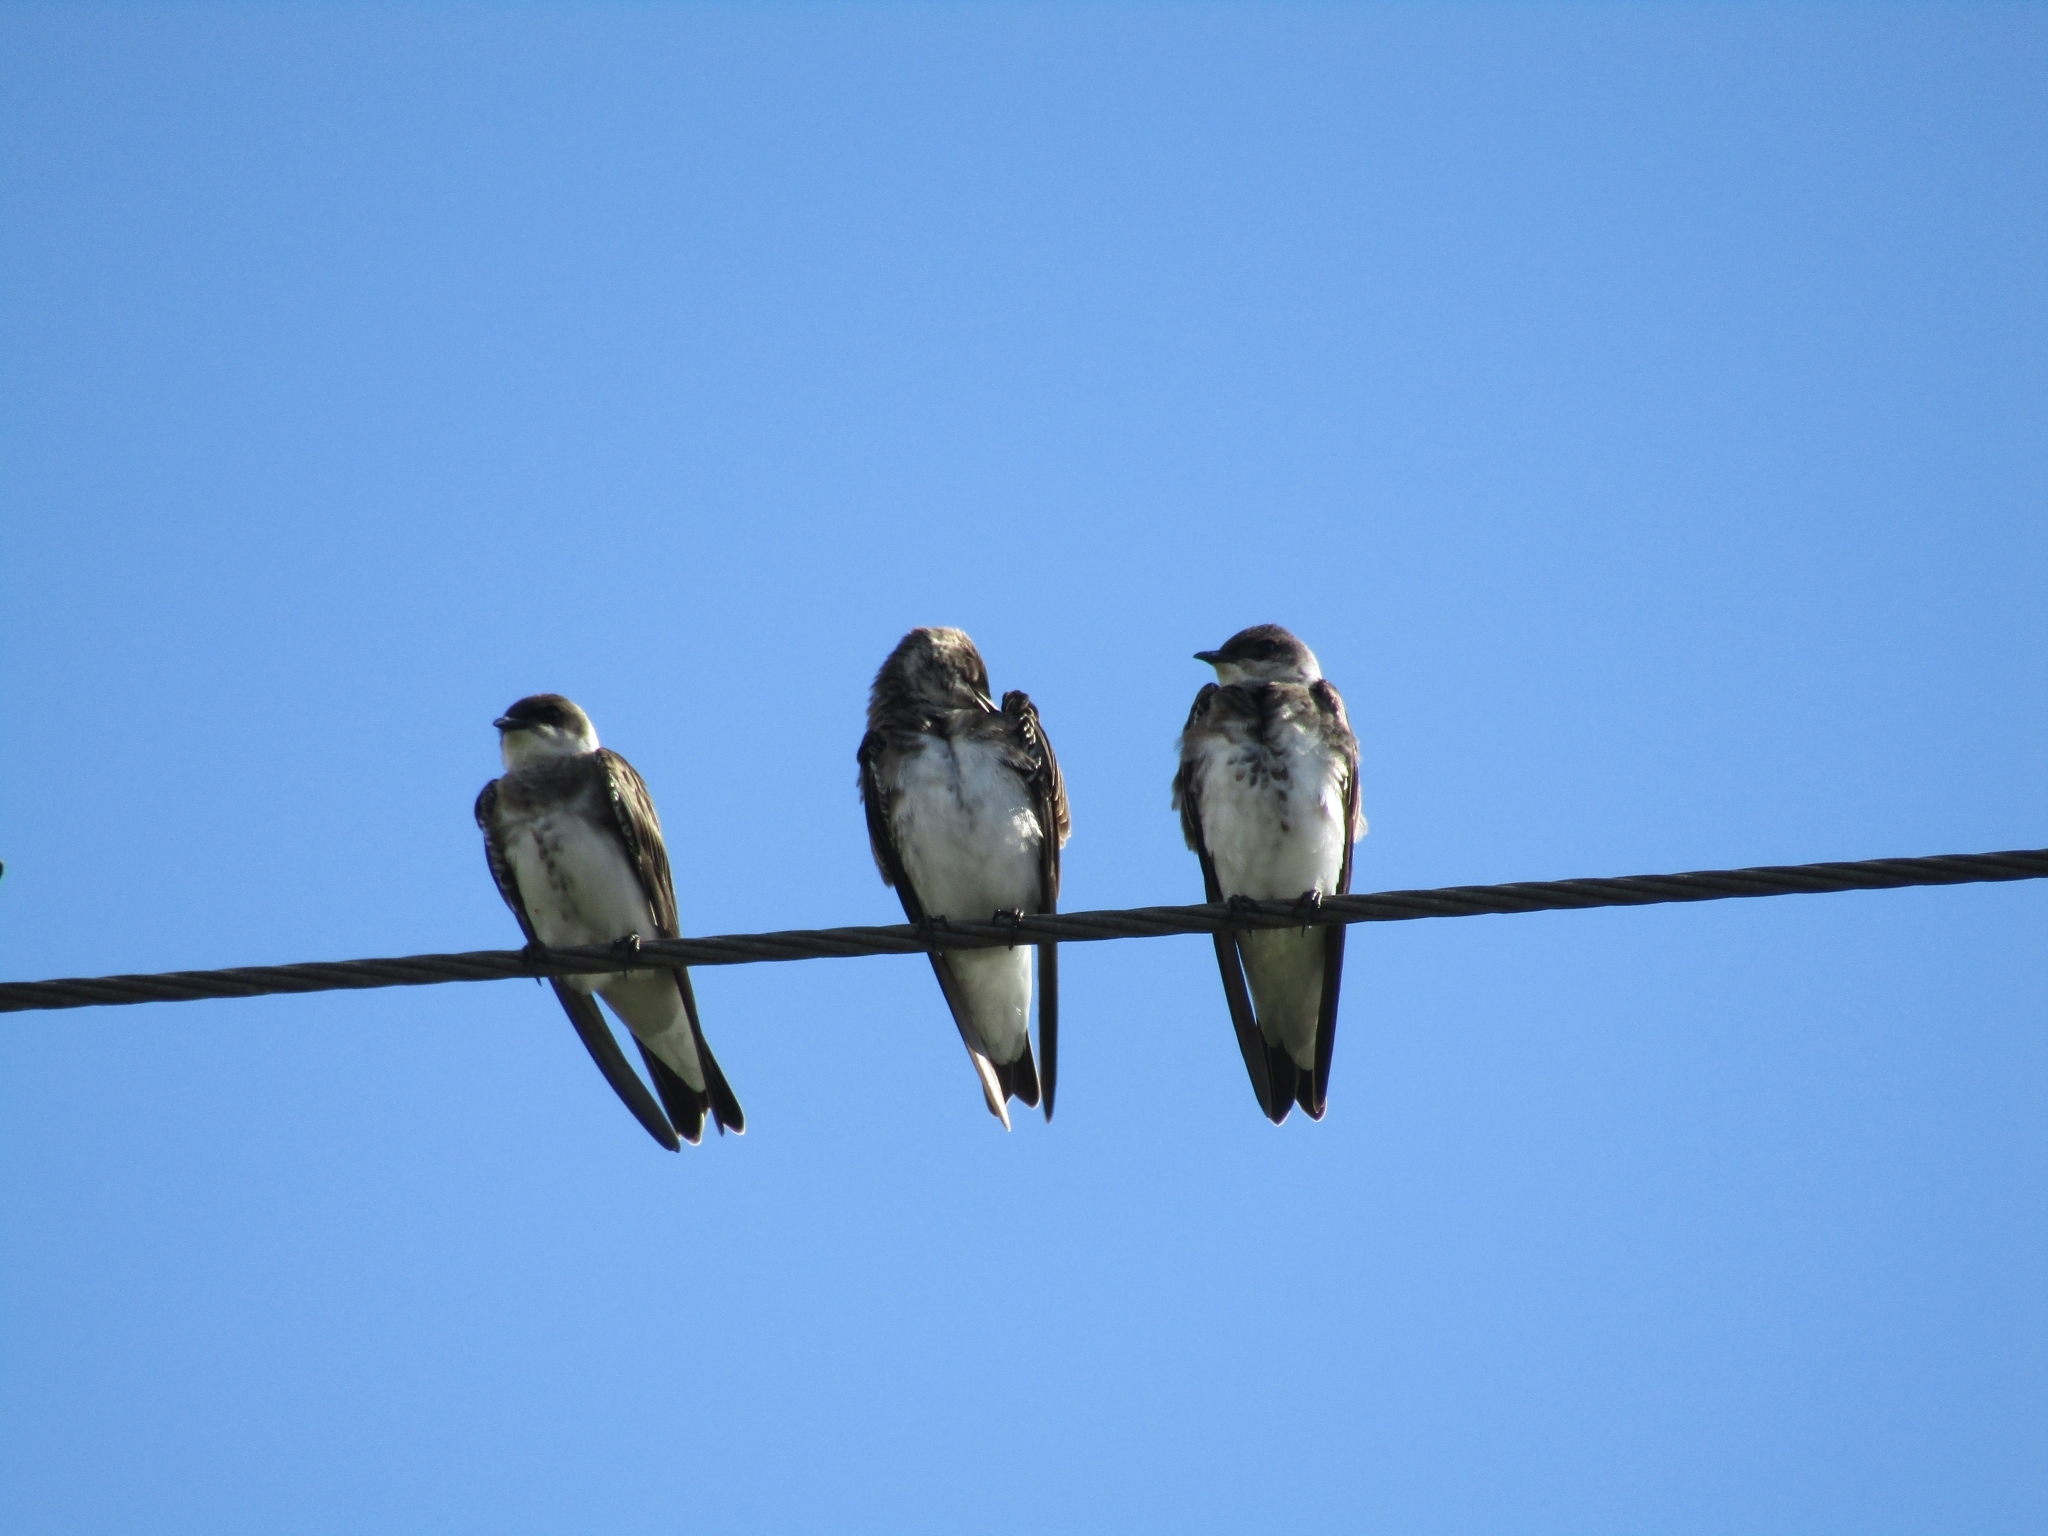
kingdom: Animalia
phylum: Chordata
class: Aves
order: Passeriformes
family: Hirundinidae
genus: Progne
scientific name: Progne tapera
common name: Brown-chested martin
